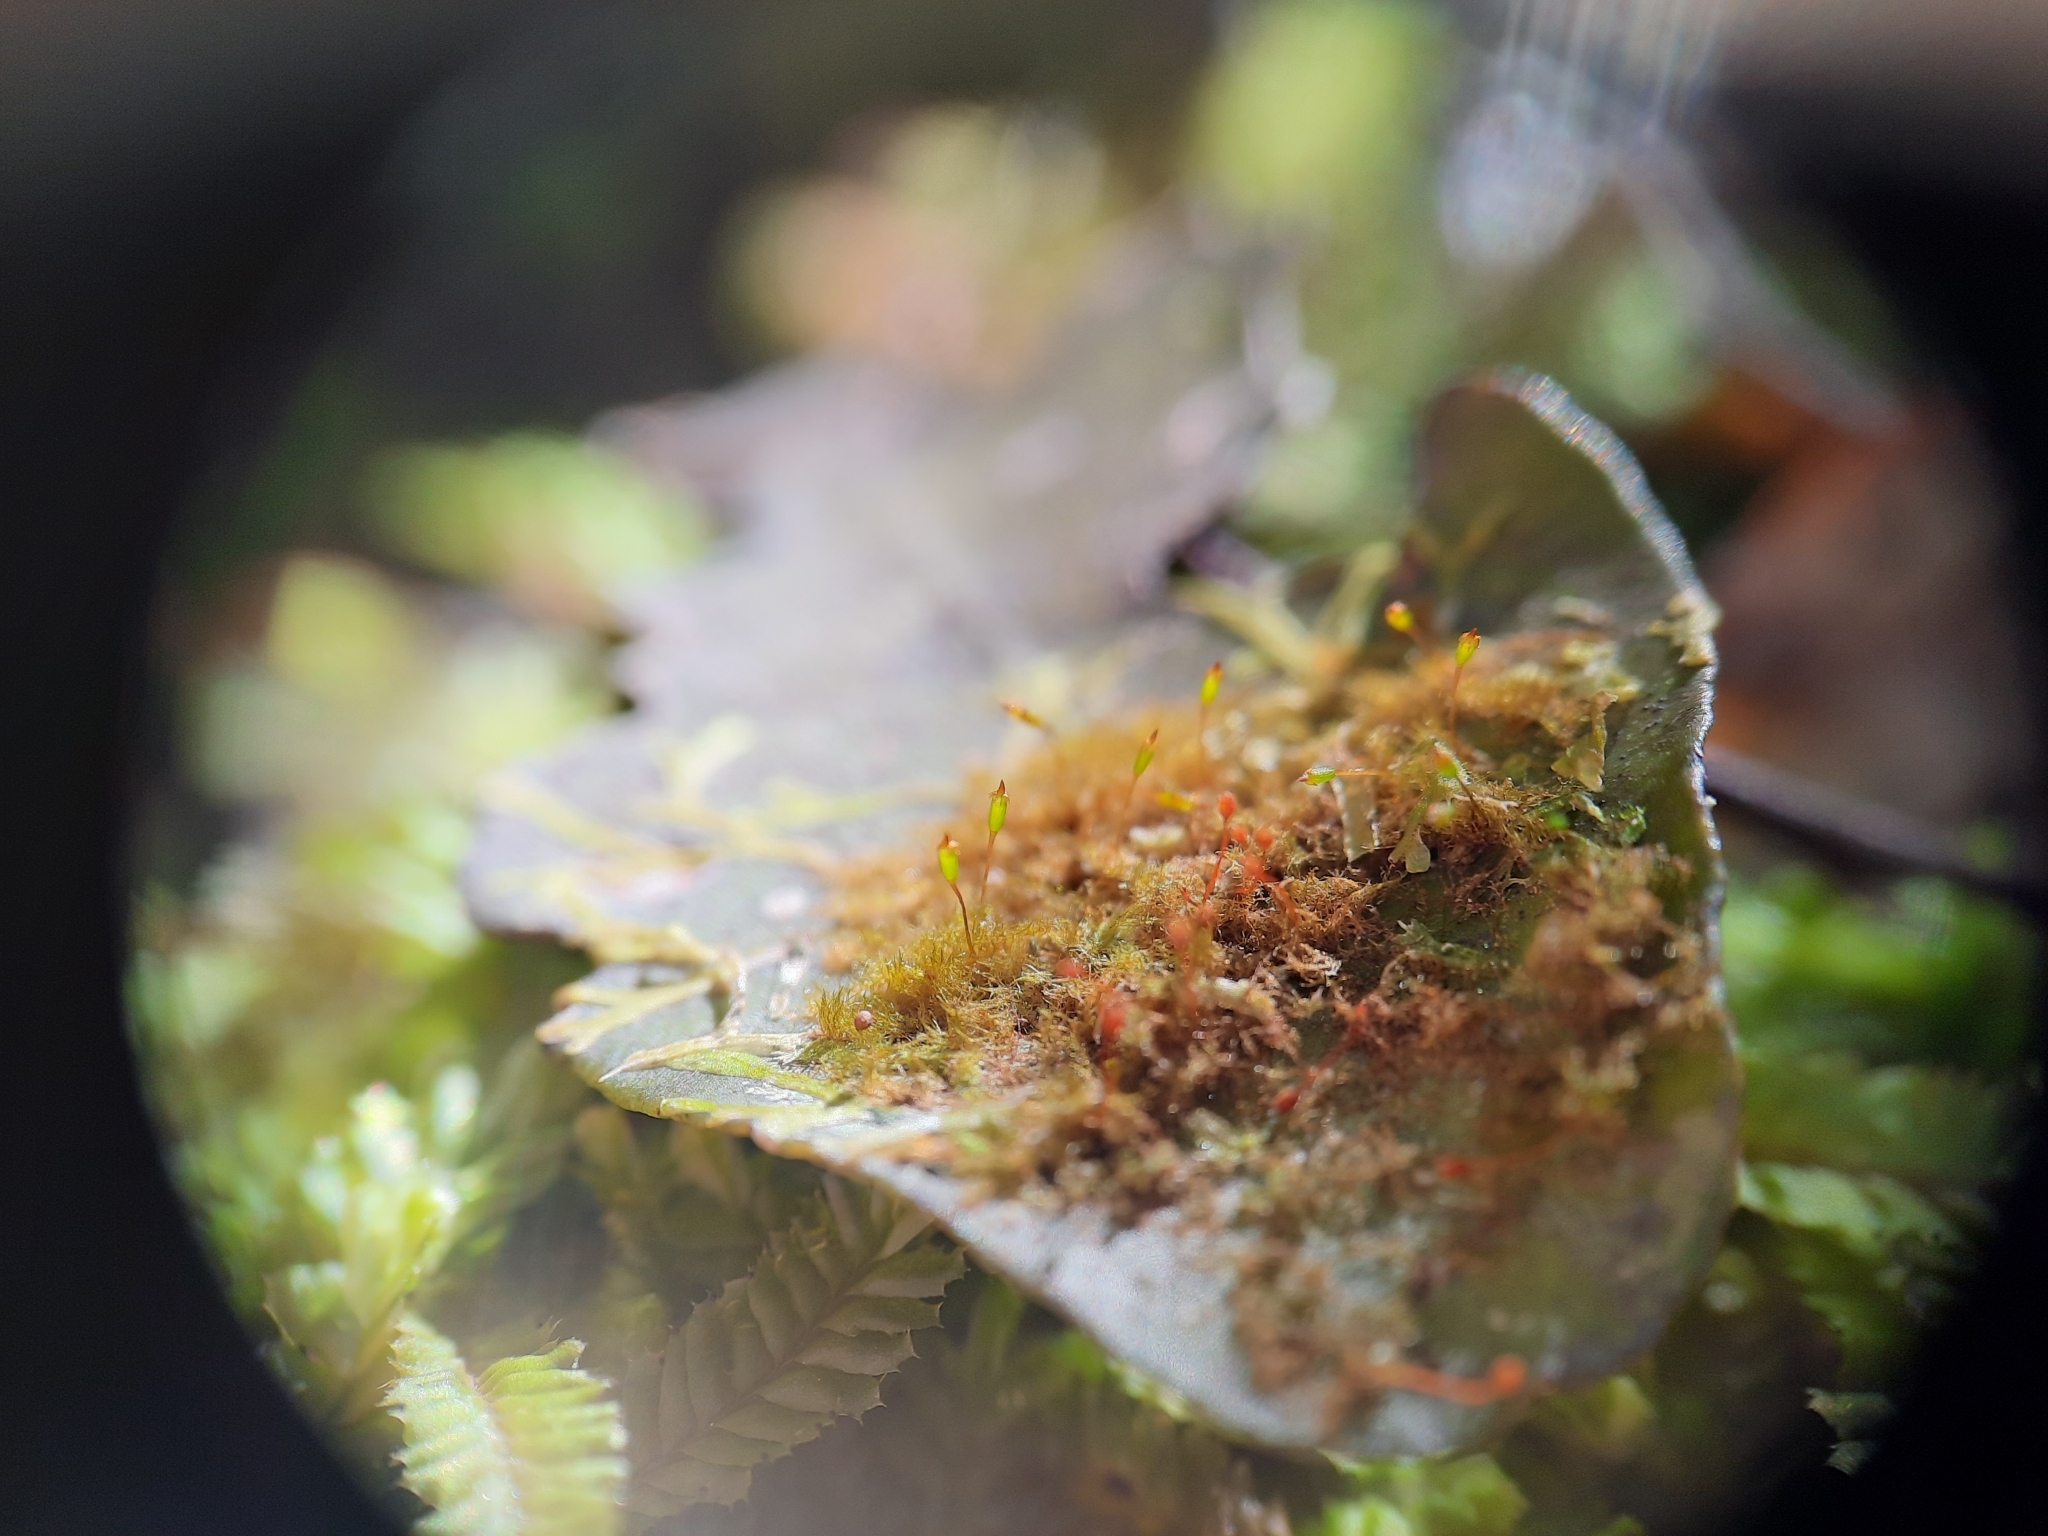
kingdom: Plantae
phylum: Bryophyta
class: Bryopsida
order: Hookeriales
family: Daltoniaceae
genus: Ephemeropsis
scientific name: Ephemeropsis trentepohlioides
